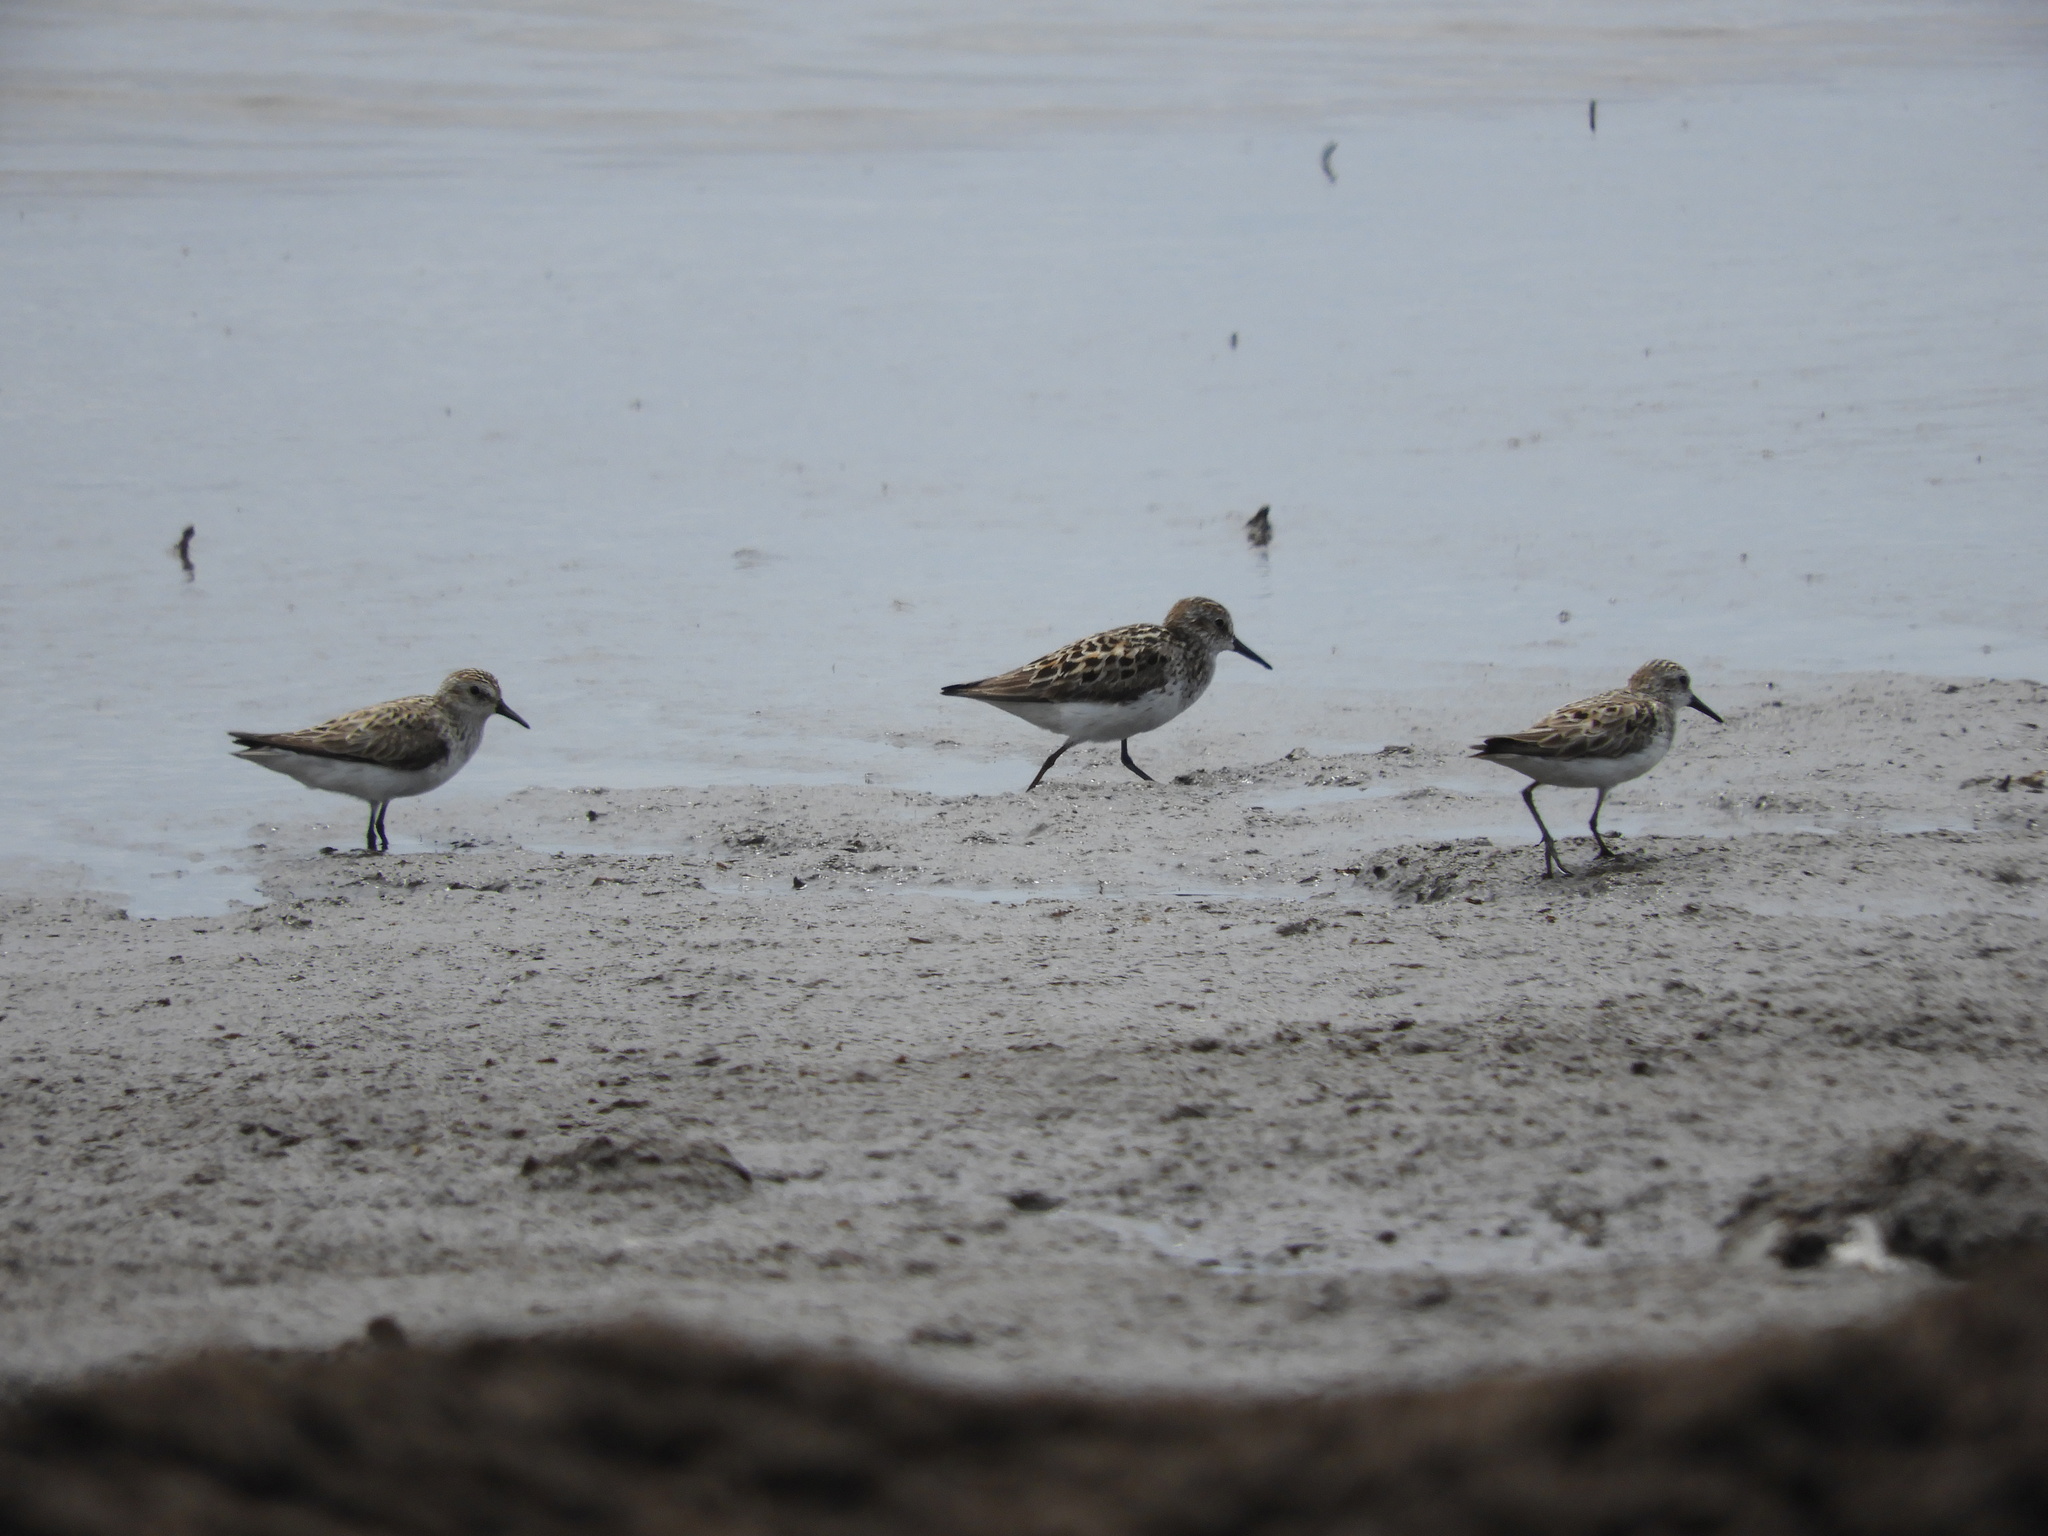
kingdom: Animalia
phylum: Chordata
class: Aves
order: Charadriiformes
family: Scolopacidae
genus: Calidris
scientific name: Calidris pusilla
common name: Semipalmated sandpiper
